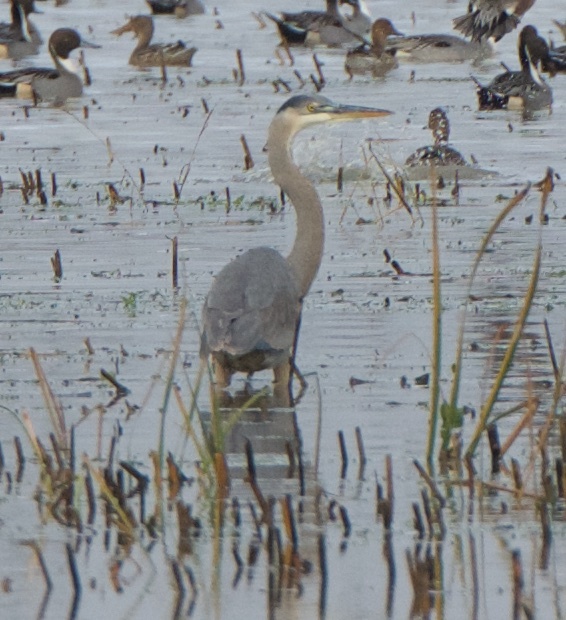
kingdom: Animalia
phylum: Chordata
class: Aves
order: Pelecaniformes
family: Ardeidae
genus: Ardea
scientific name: Ardea herodias
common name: Great blue heron
